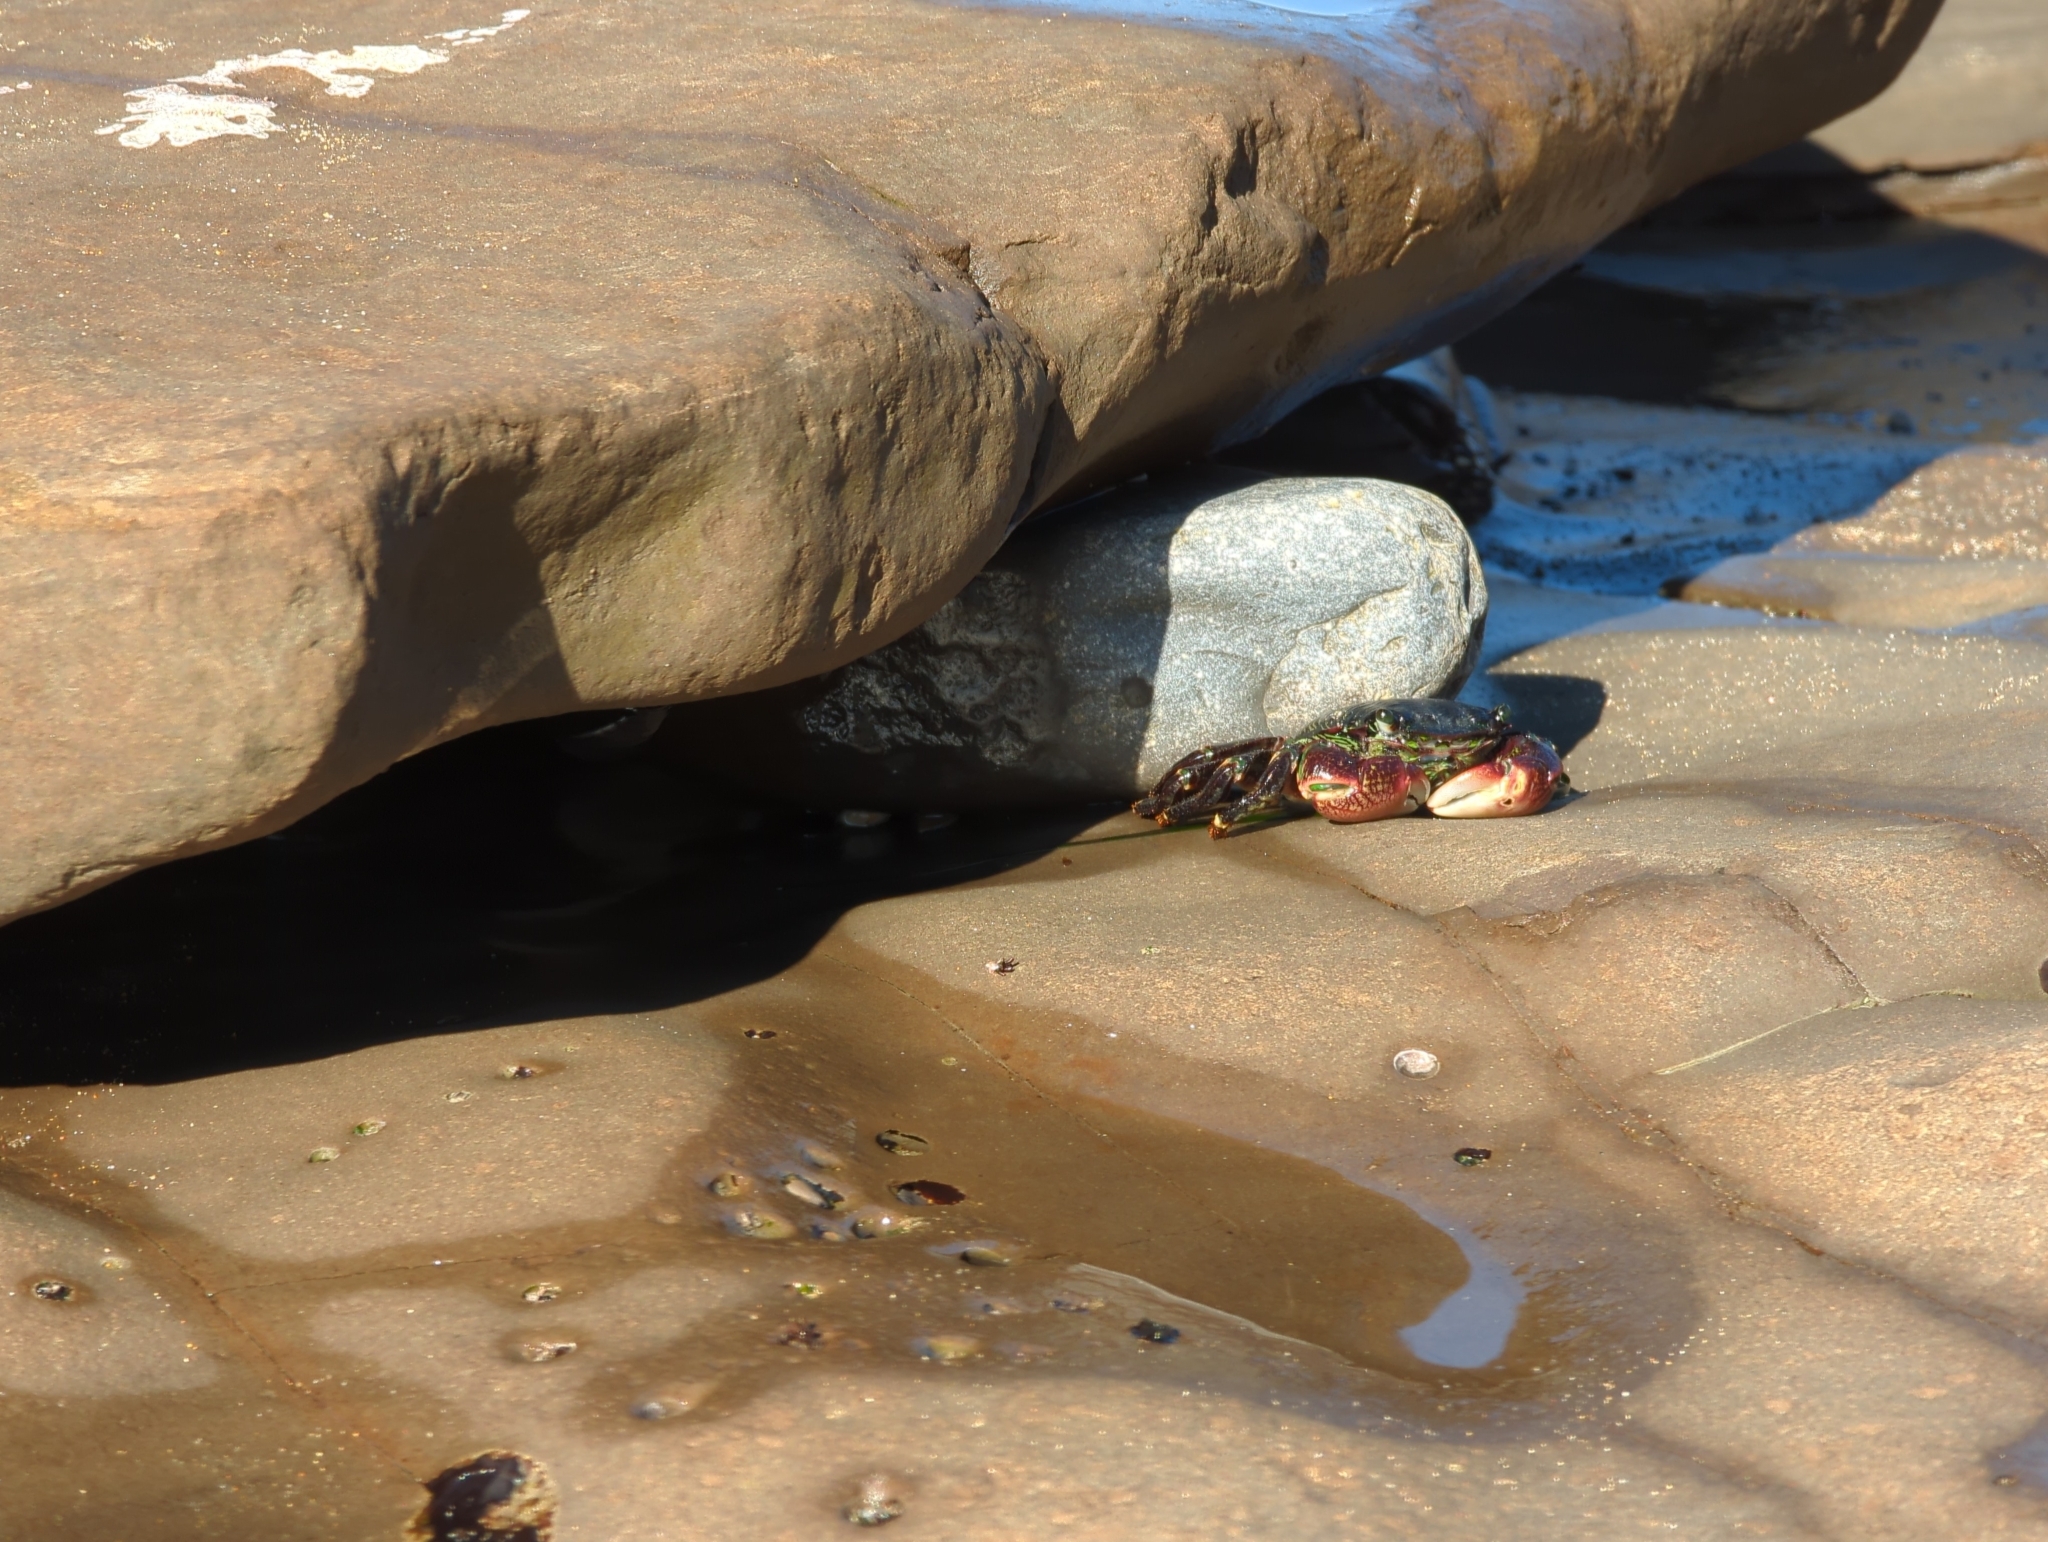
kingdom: Animalia
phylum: Arthropoda
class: Malacostraca
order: Decapoda
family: Grapsidae
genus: Pachygrapsus
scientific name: Pachygrapsus crassipes
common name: Striped shore crab
